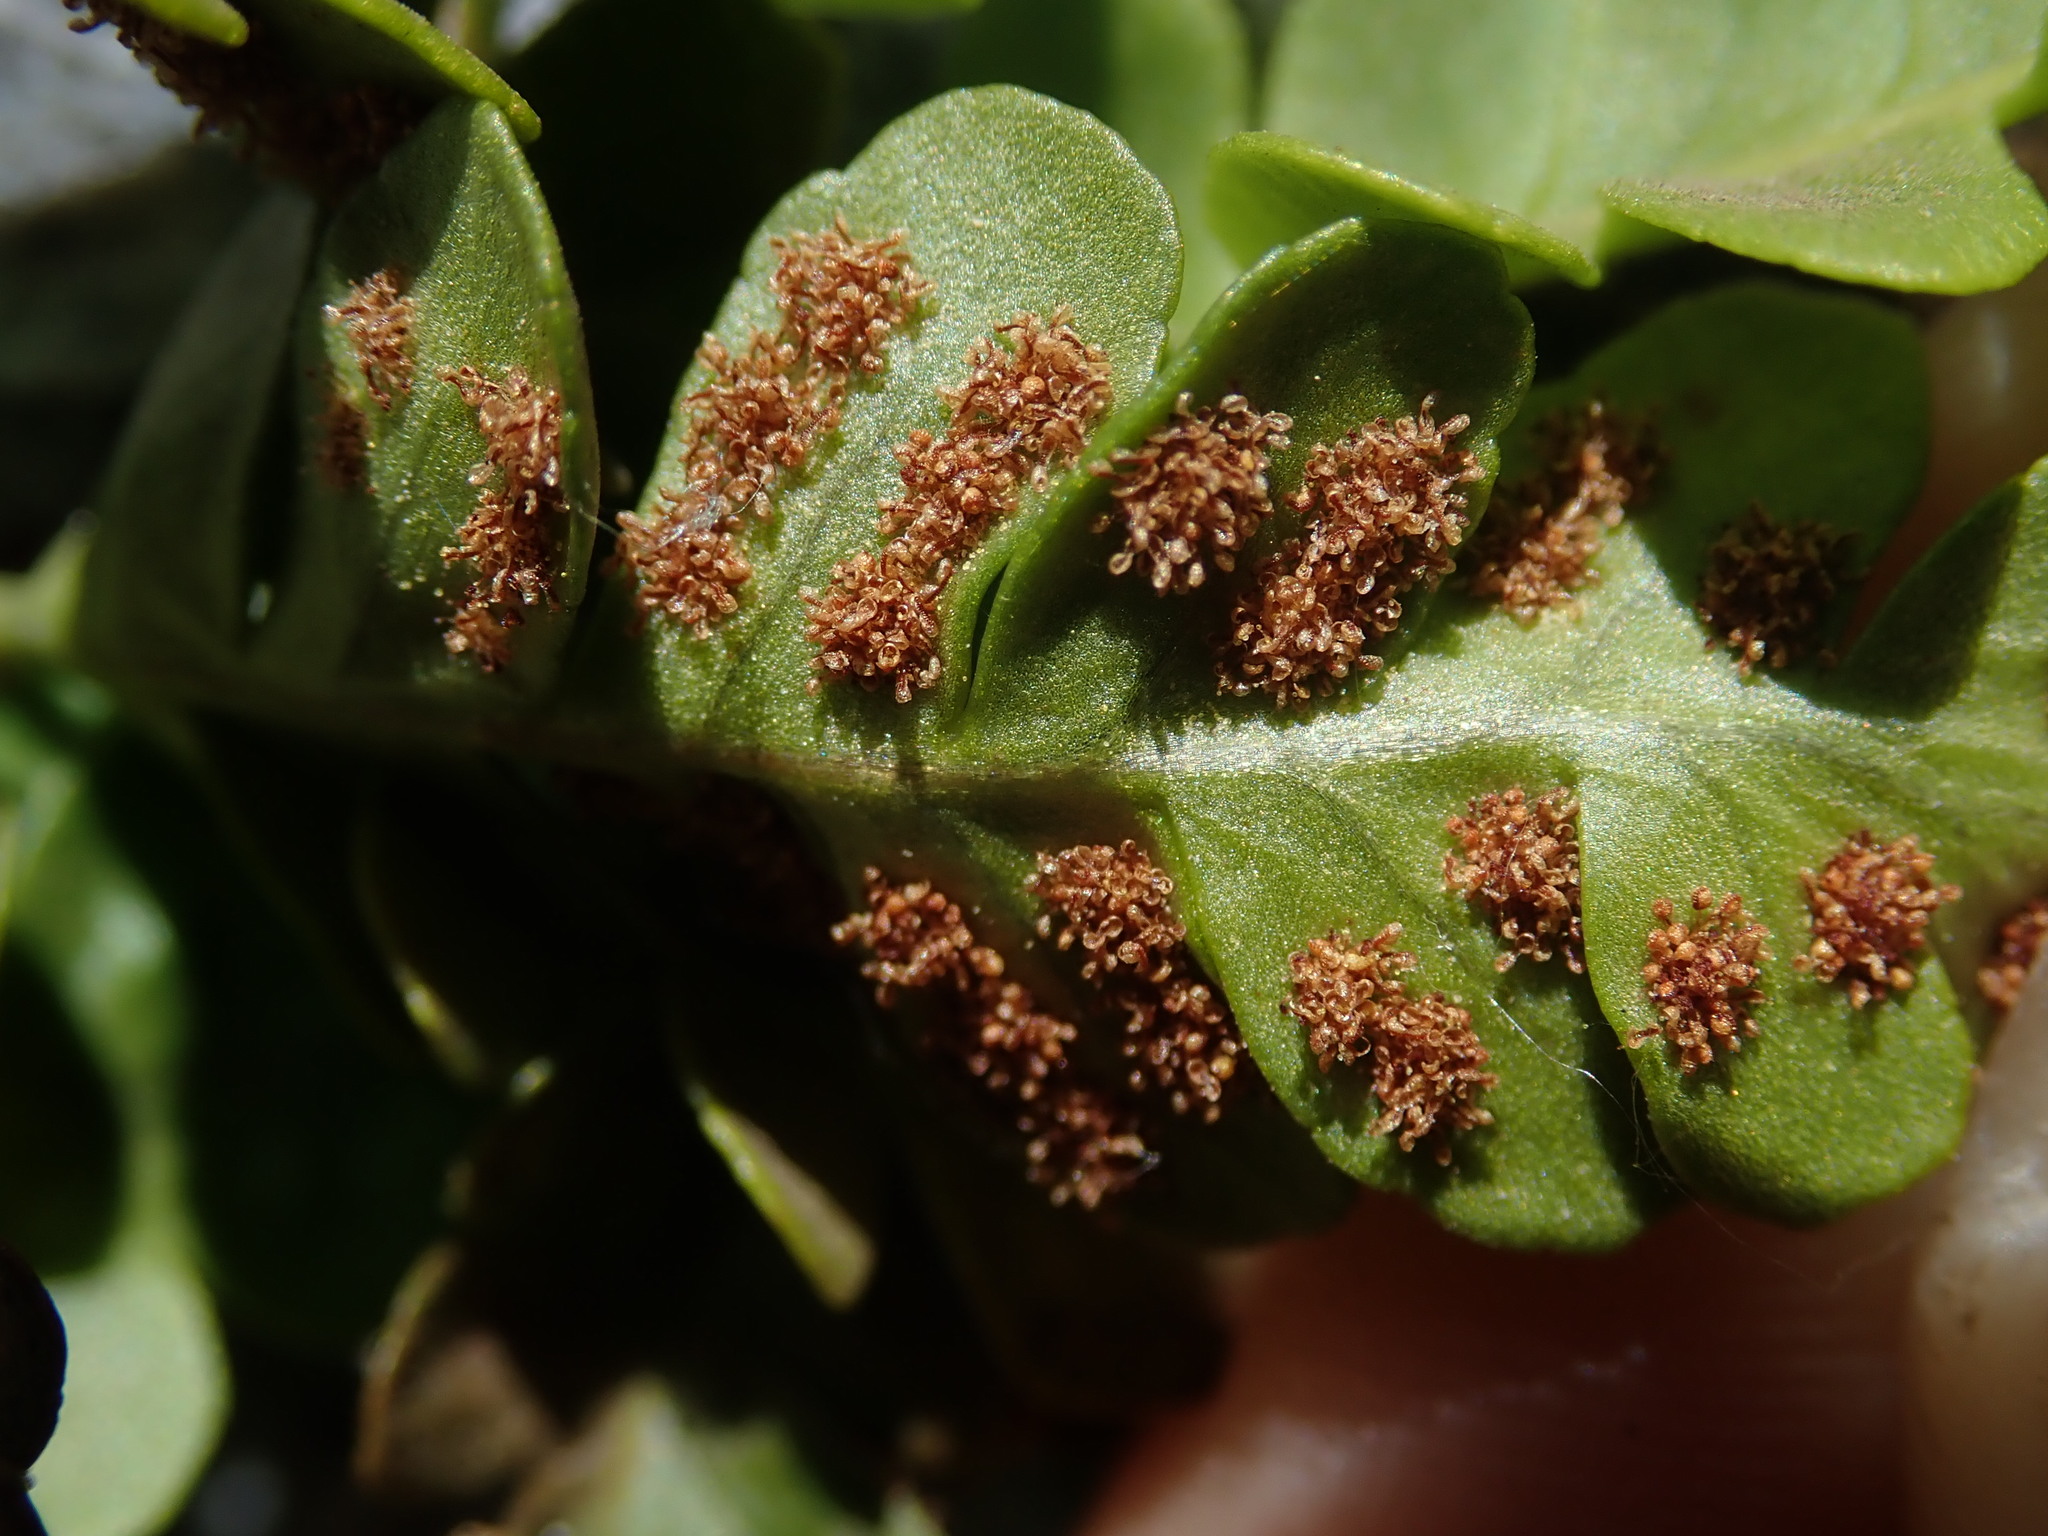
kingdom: Plantae
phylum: Tracheophyta
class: Polypodiopsida
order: Polypodiales
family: Polypodiaceae
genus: Polypodium
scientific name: Polypodium amorphum
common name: Pacific polypody
